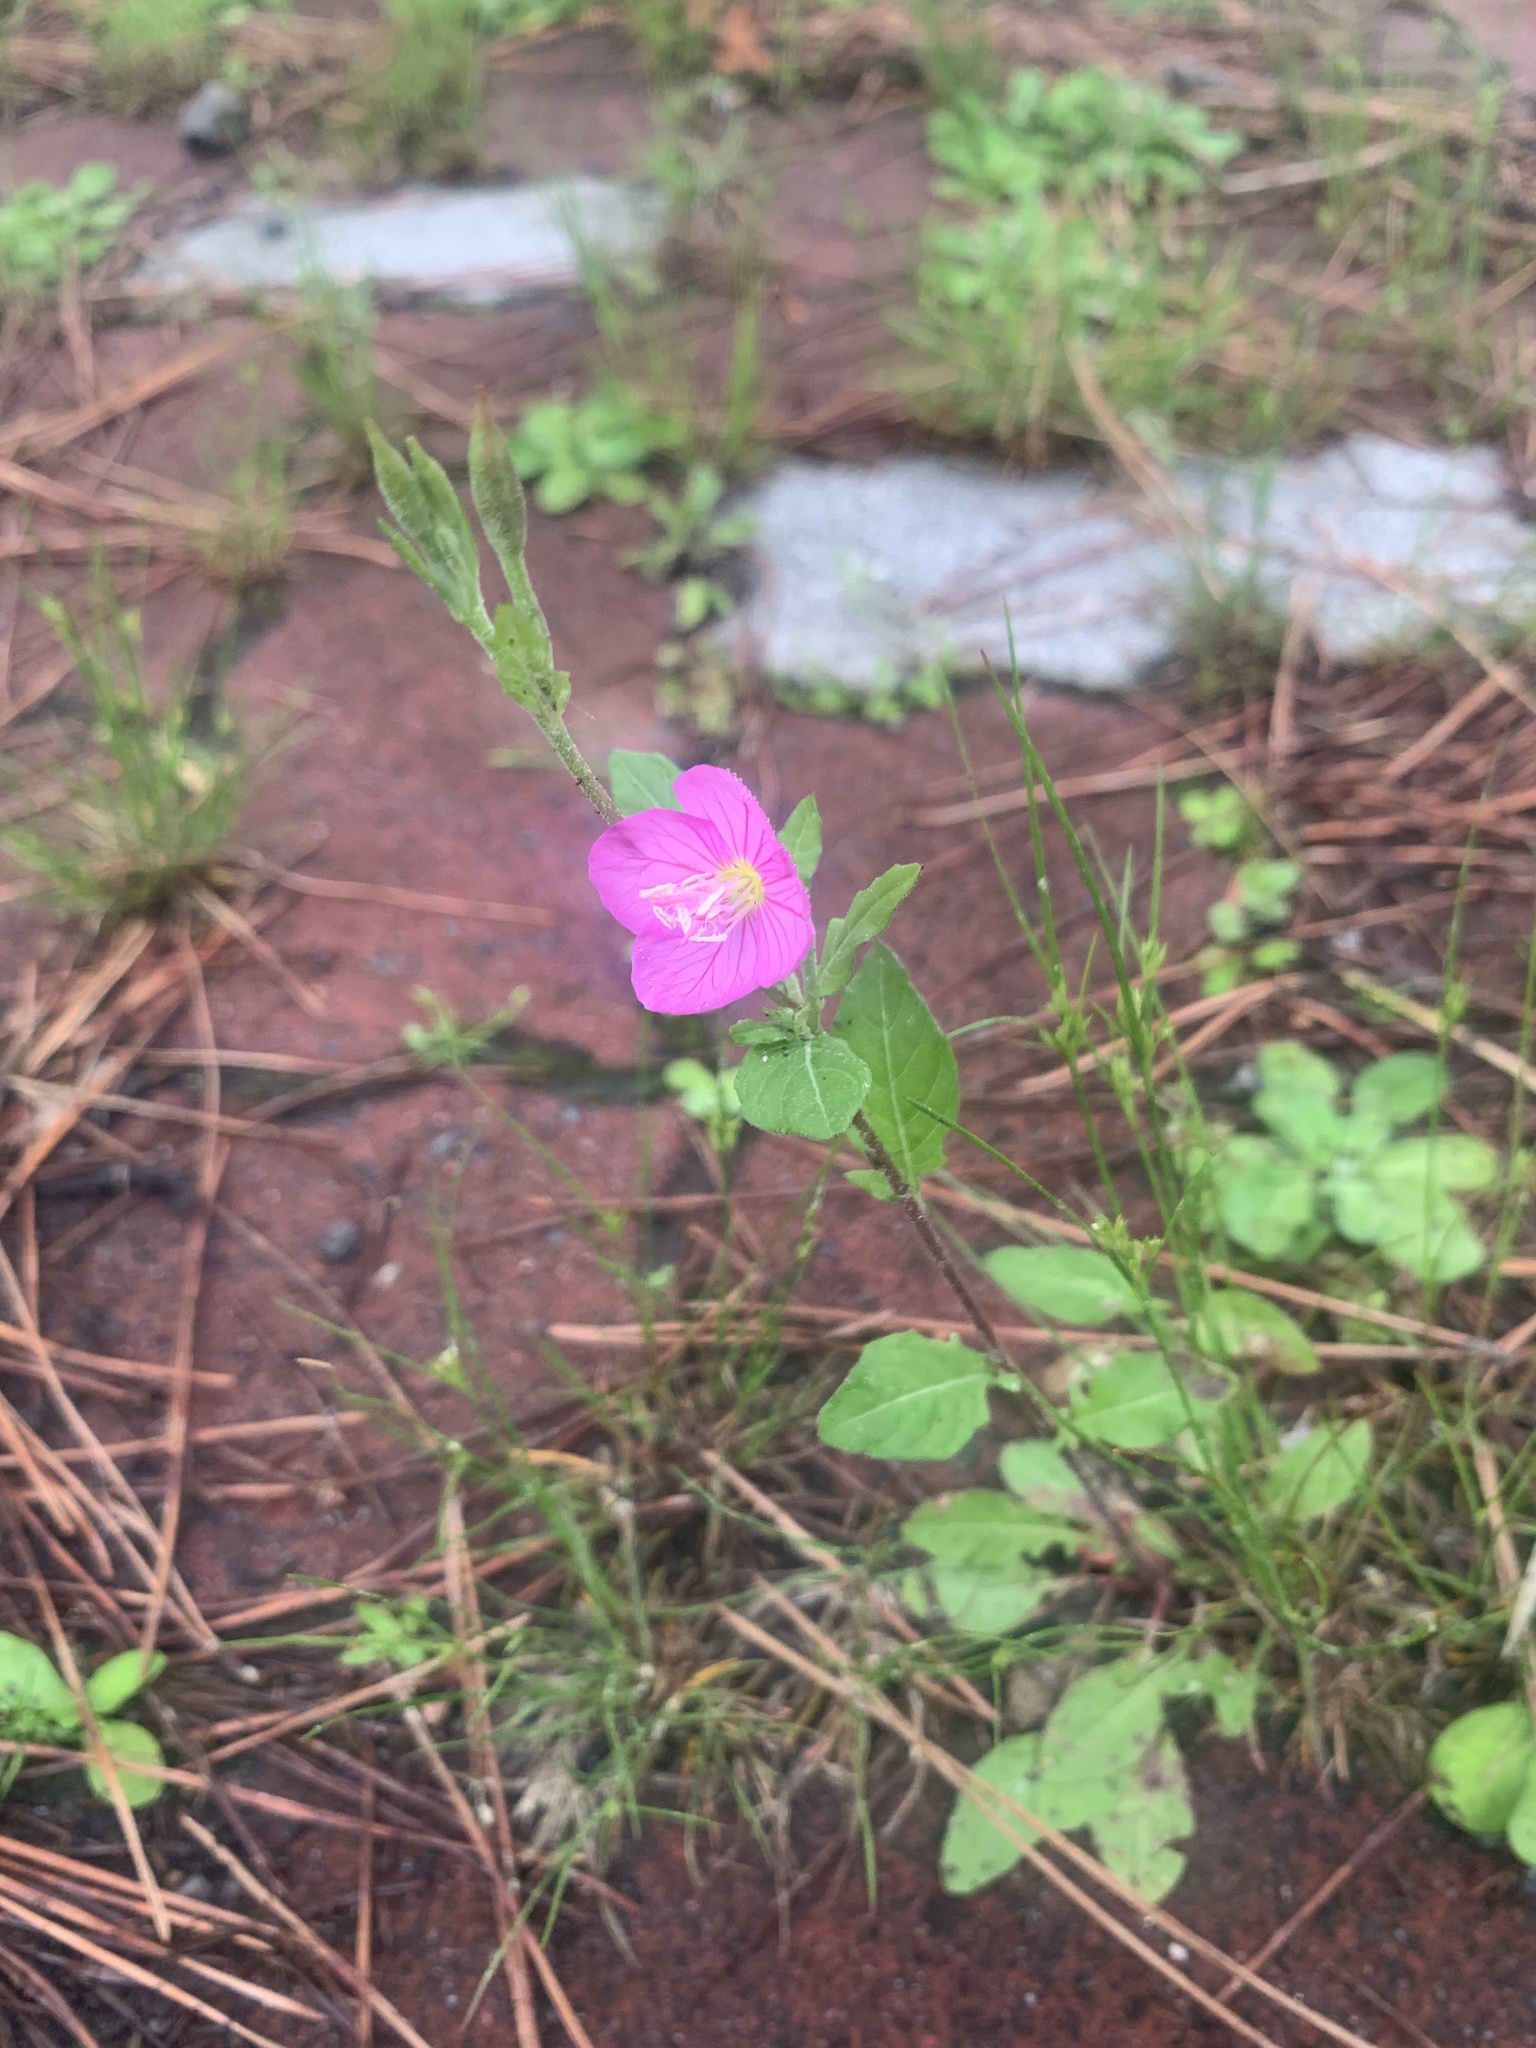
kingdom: Plantae
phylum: Tracheophyta
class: Magnoliopsida
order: Myrtales
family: Onagraceae
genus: Oenothera
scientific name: Oenothera rosea
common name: Rosy evening-primrose
